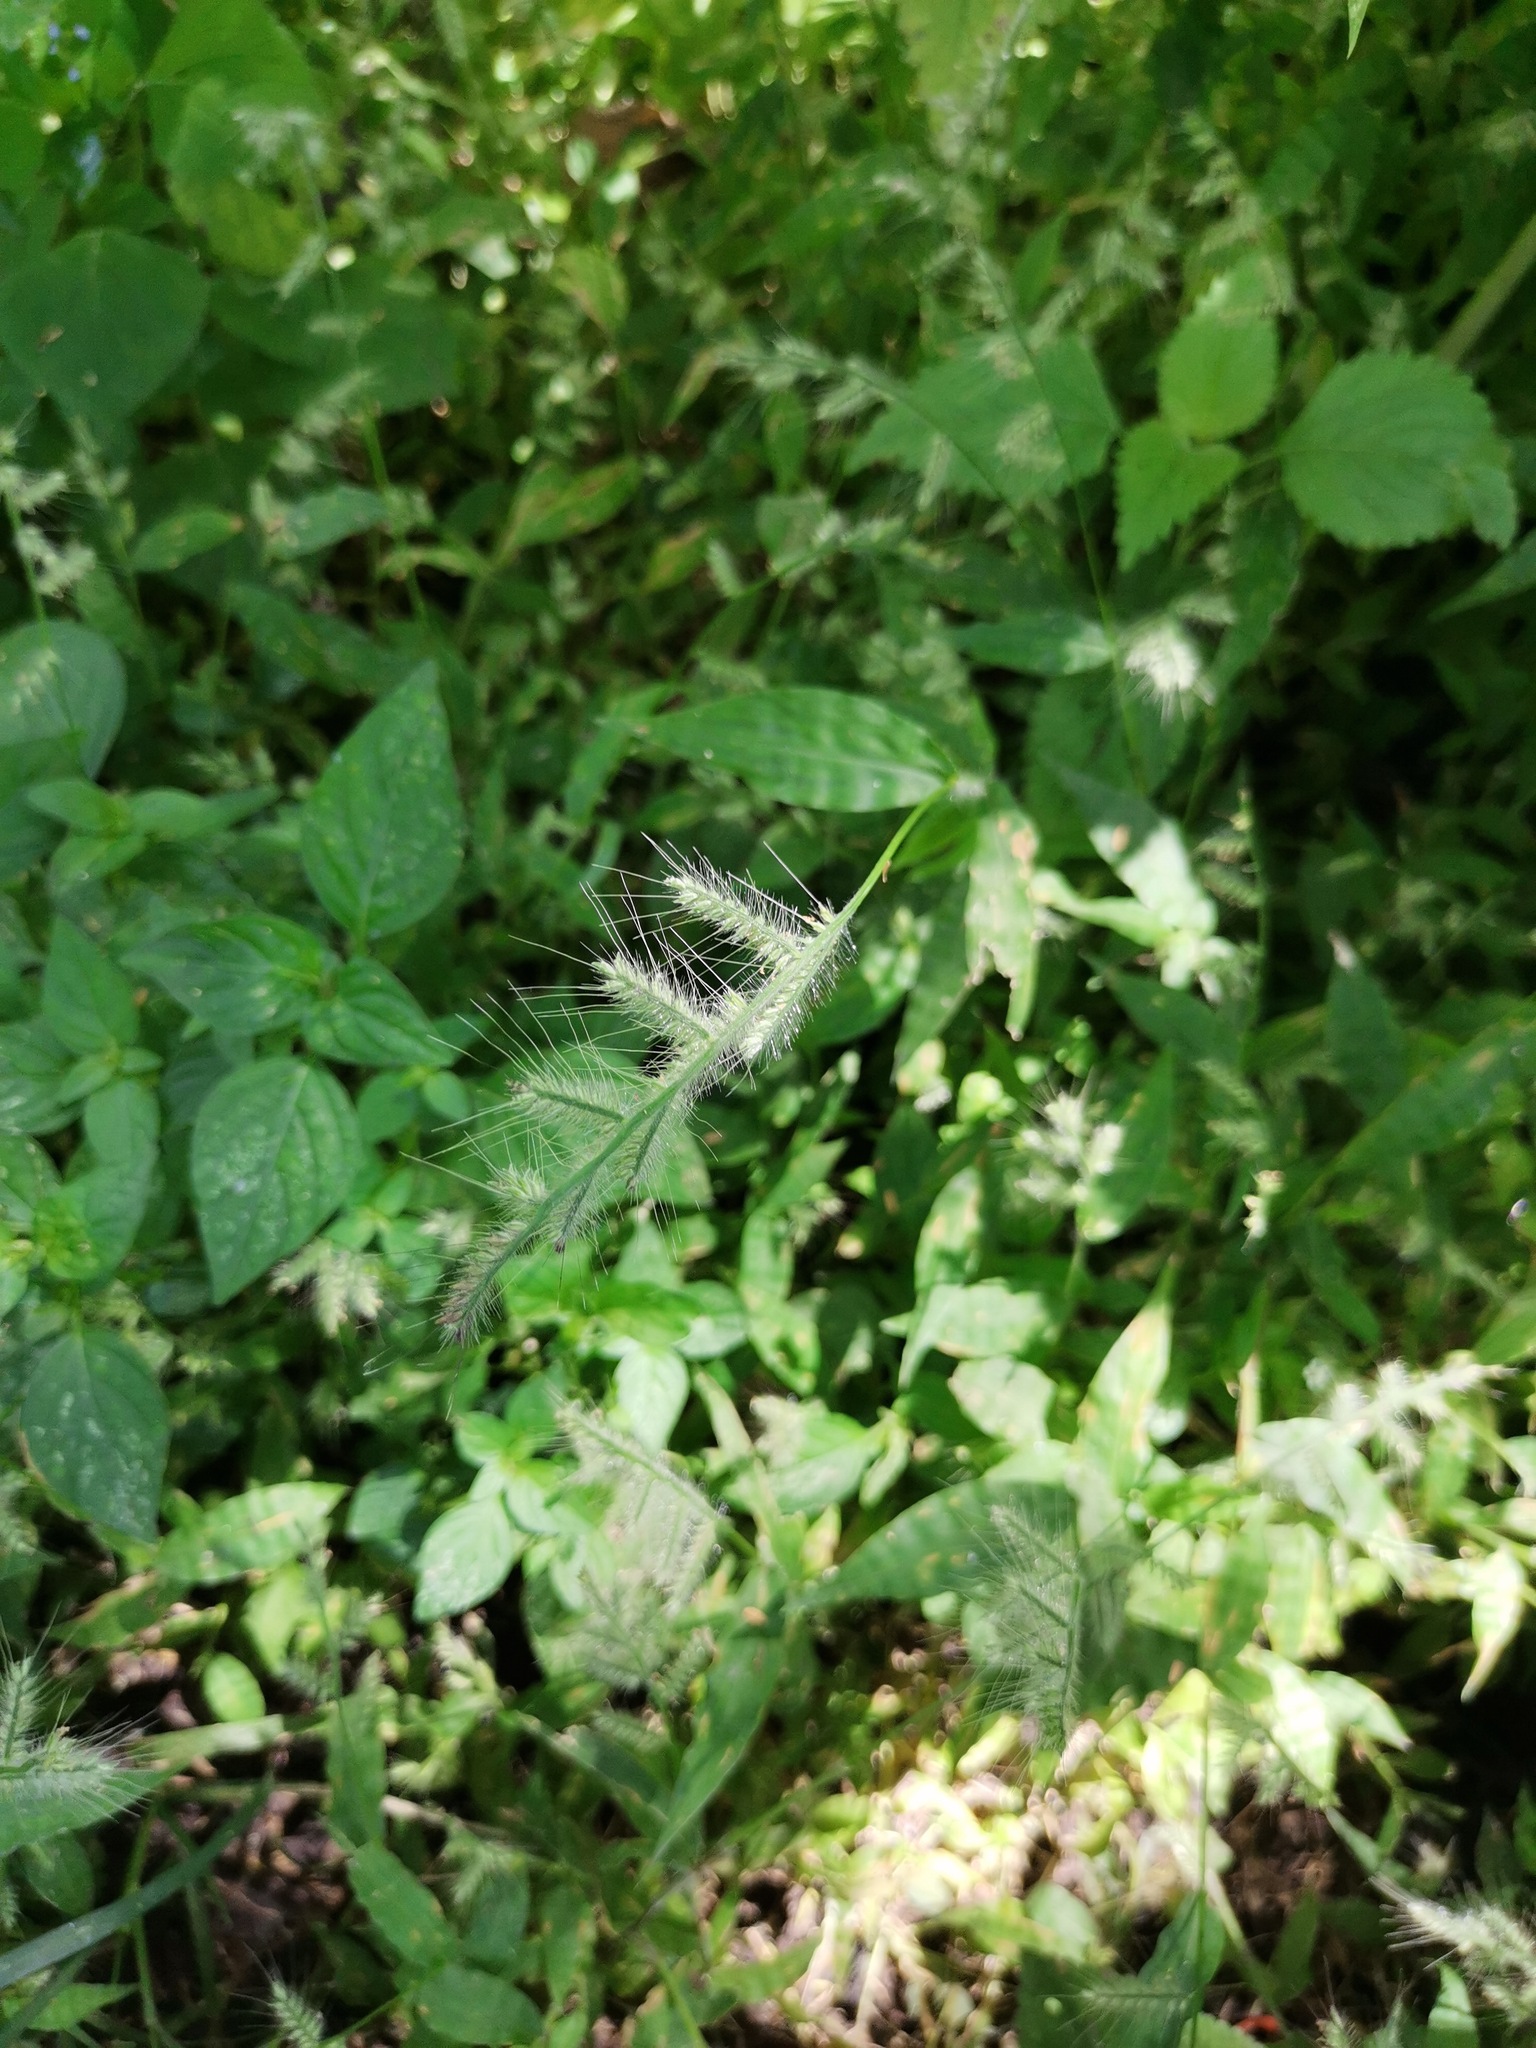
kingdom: Plantae
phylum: Tracheophyta
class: Liliopsida
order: Poales
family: Poaceae
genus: Oplismenus
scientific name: Oplismenus burmanni
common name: Burmann's basketgrass
